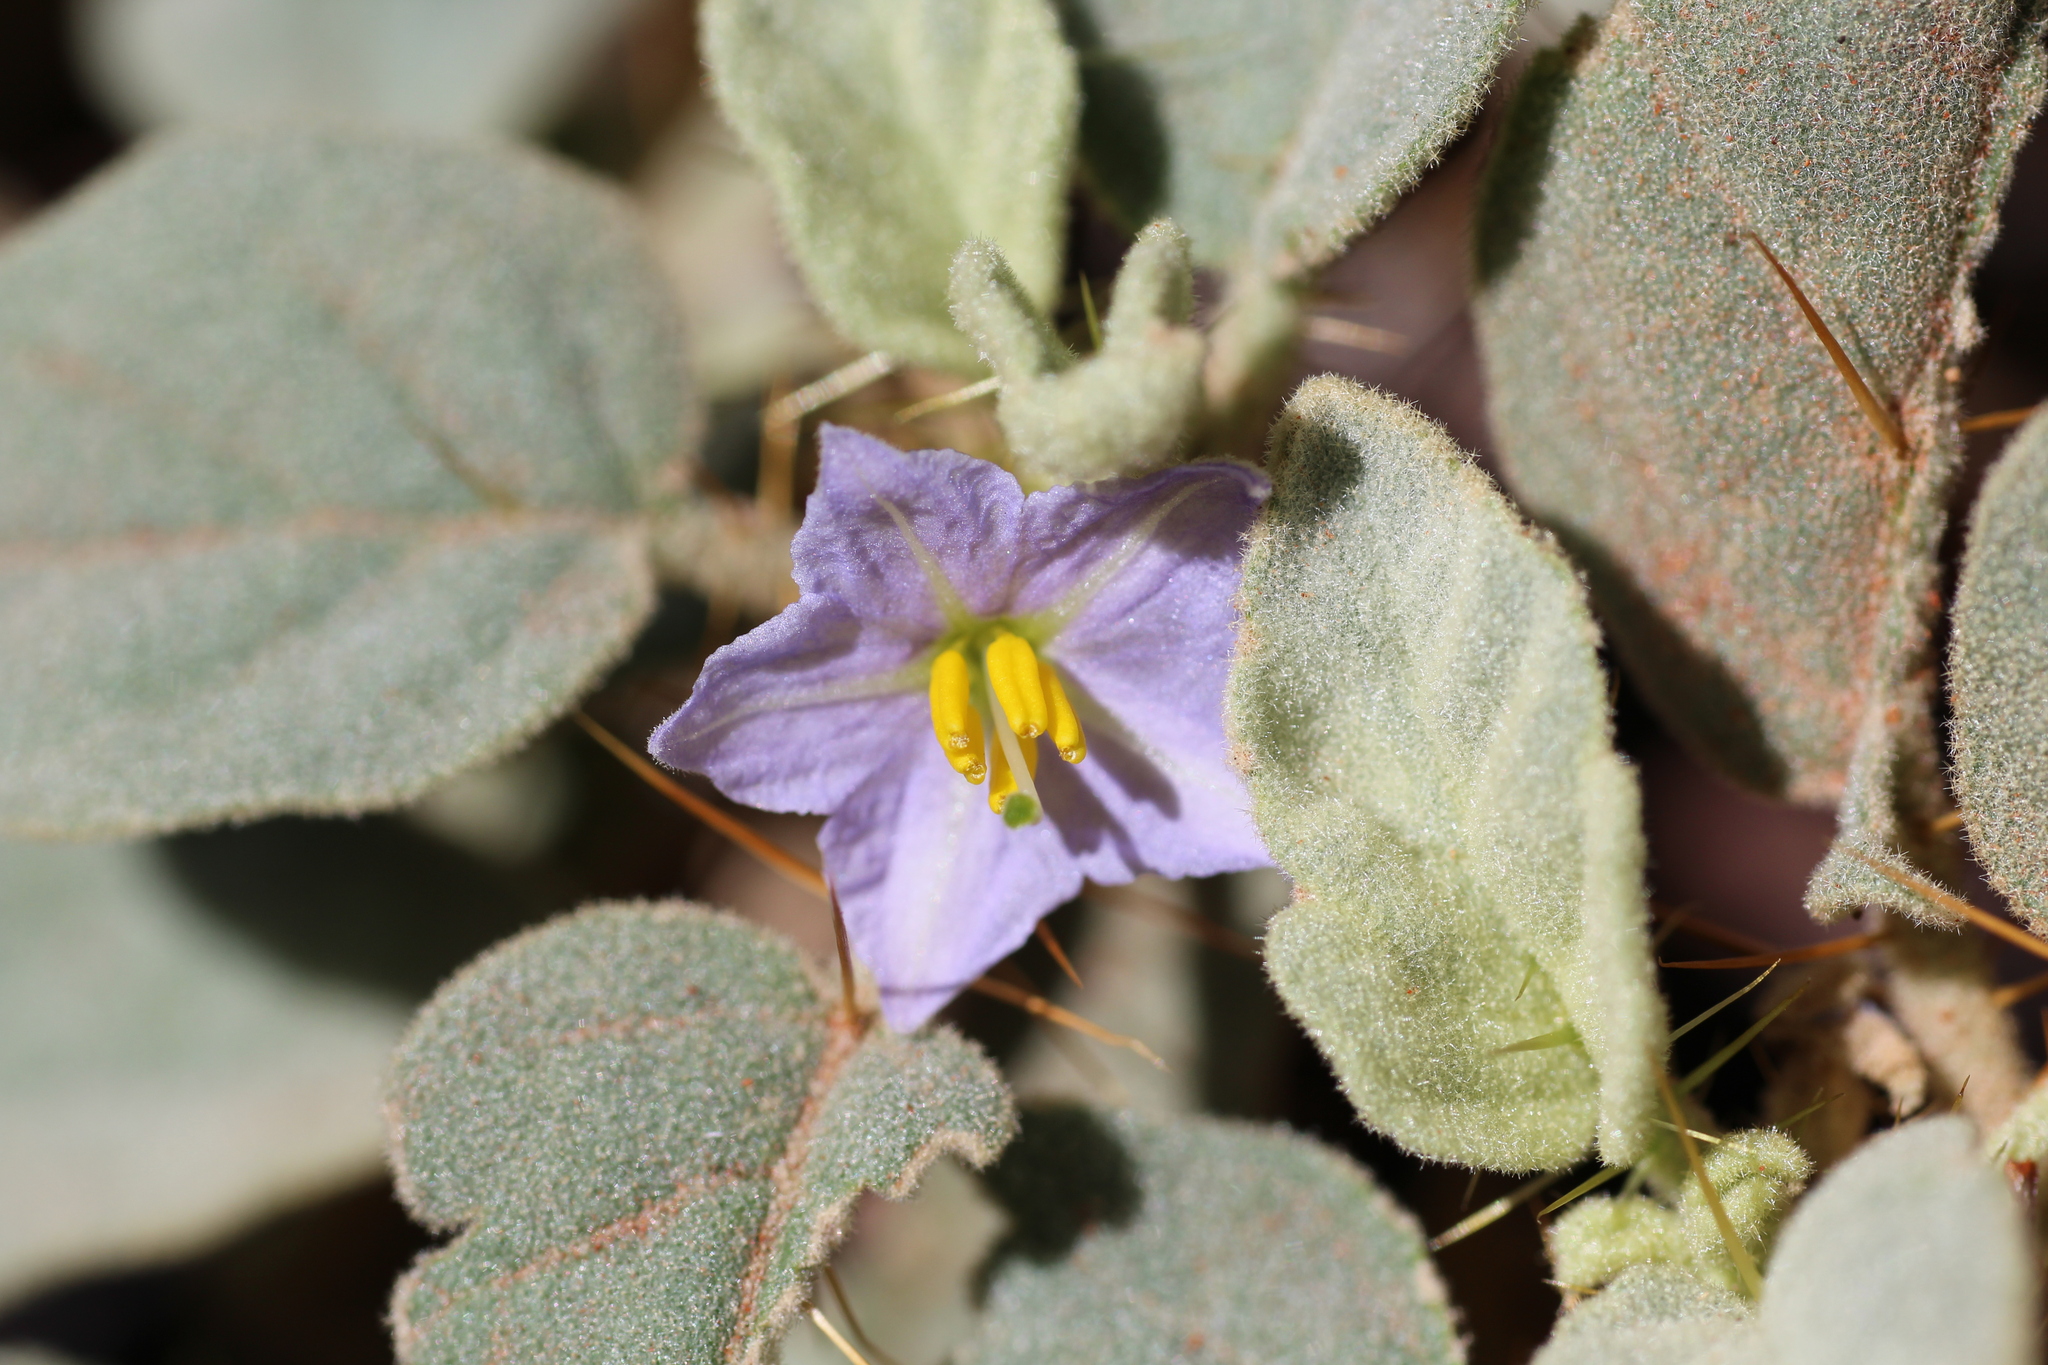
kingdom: Plantae
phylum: Tracheophyta
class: Magnoliopsida
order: Solanales
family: Solanaceae
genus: Solanum
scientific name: Solanum
